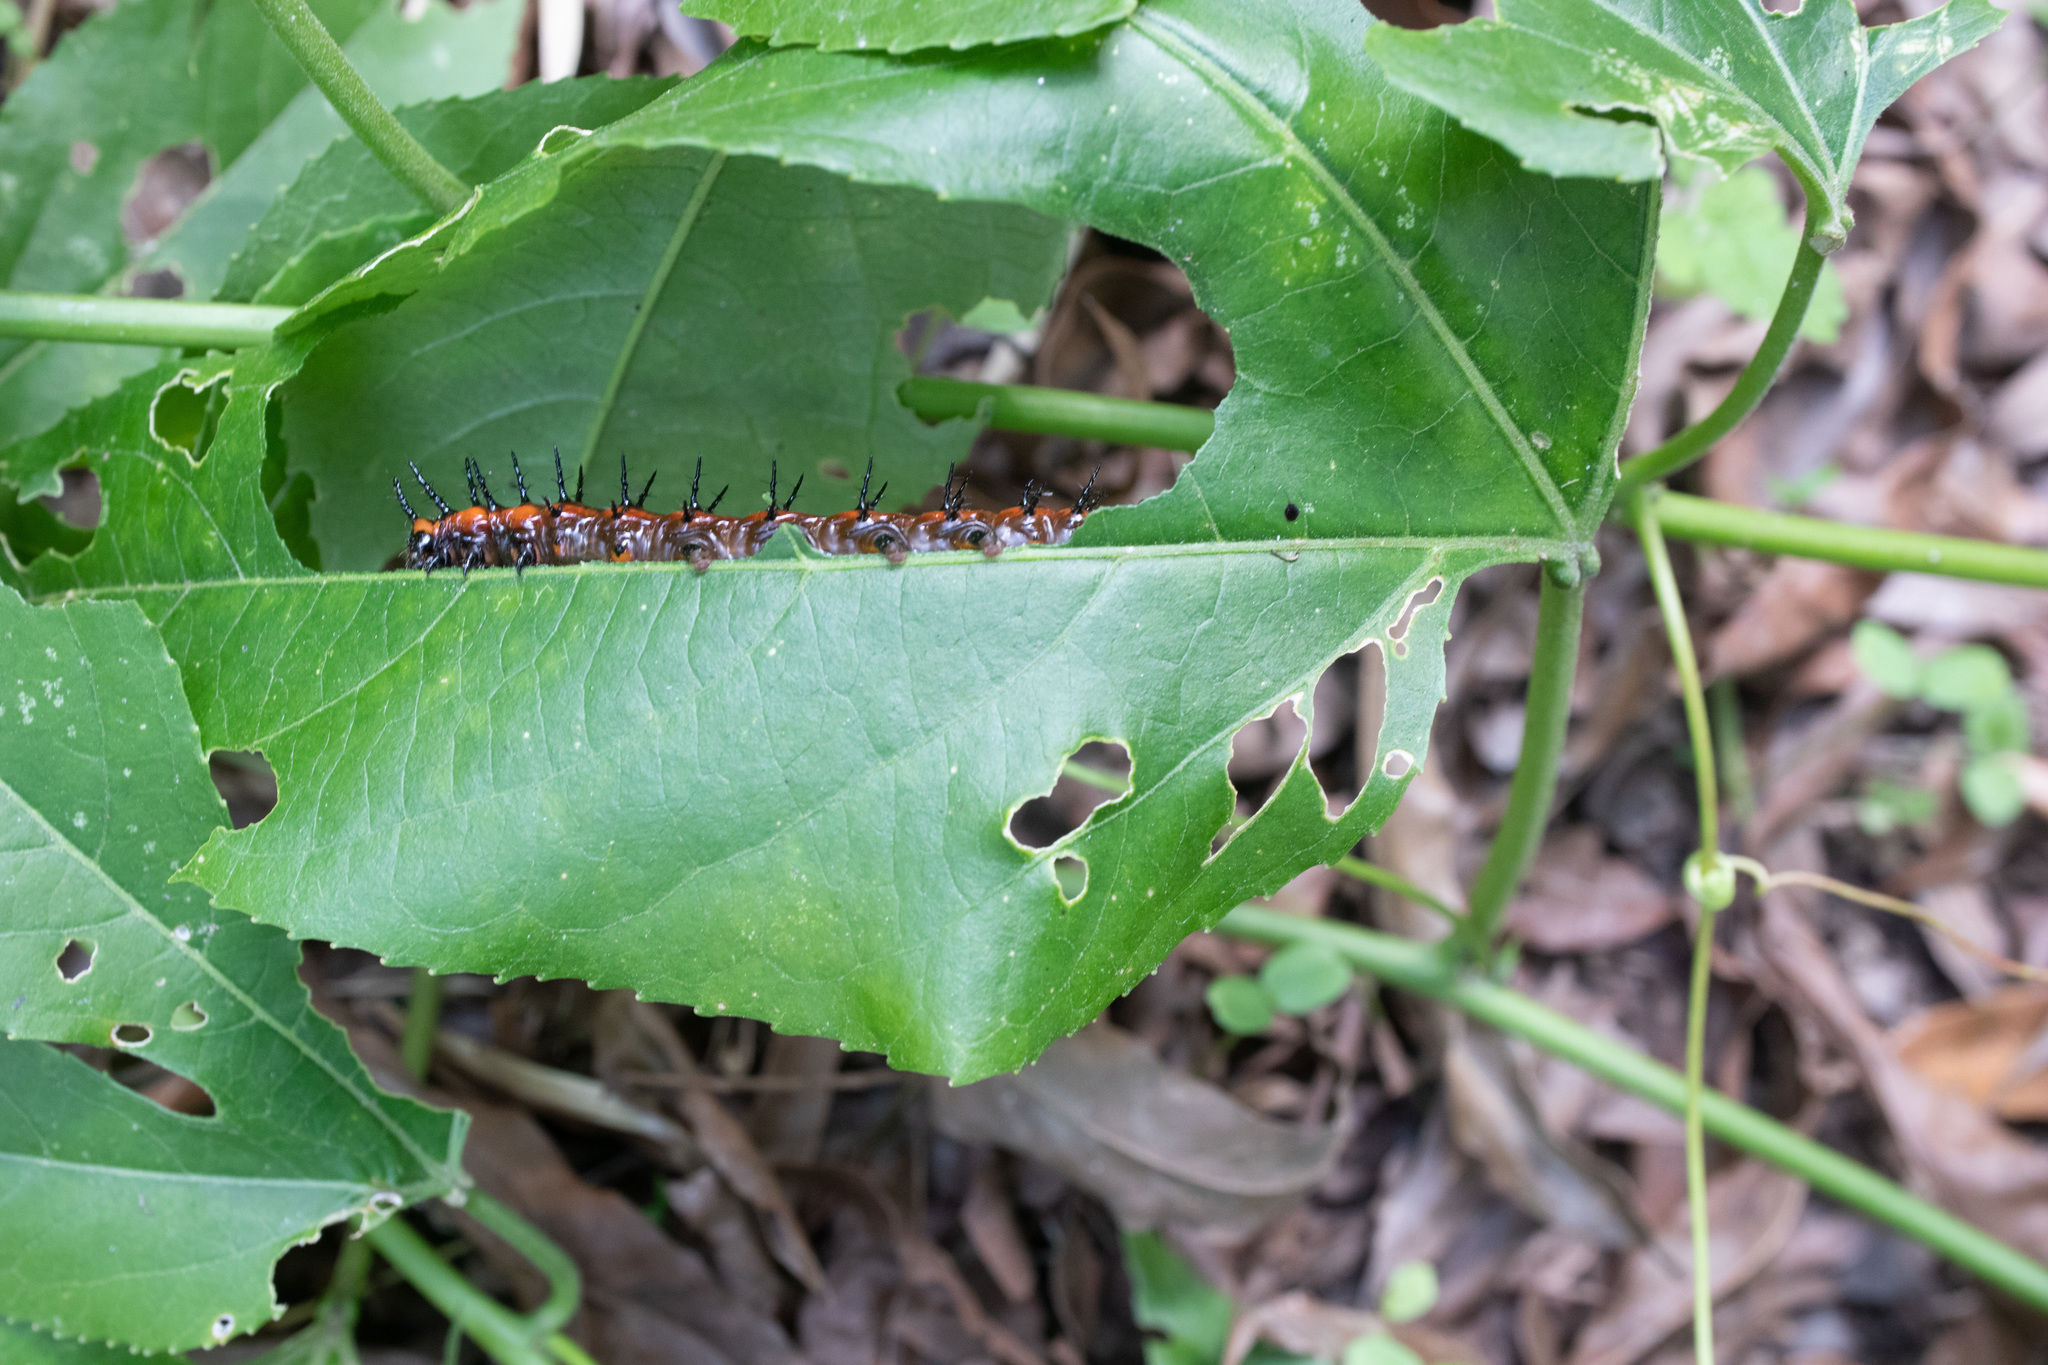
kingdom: Animalia
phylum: Arthropoda
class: Insecta
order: Lepidoptera
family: Nymphalidae
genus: Dione
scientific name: Dione vanillae
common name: Gulf fritillary
